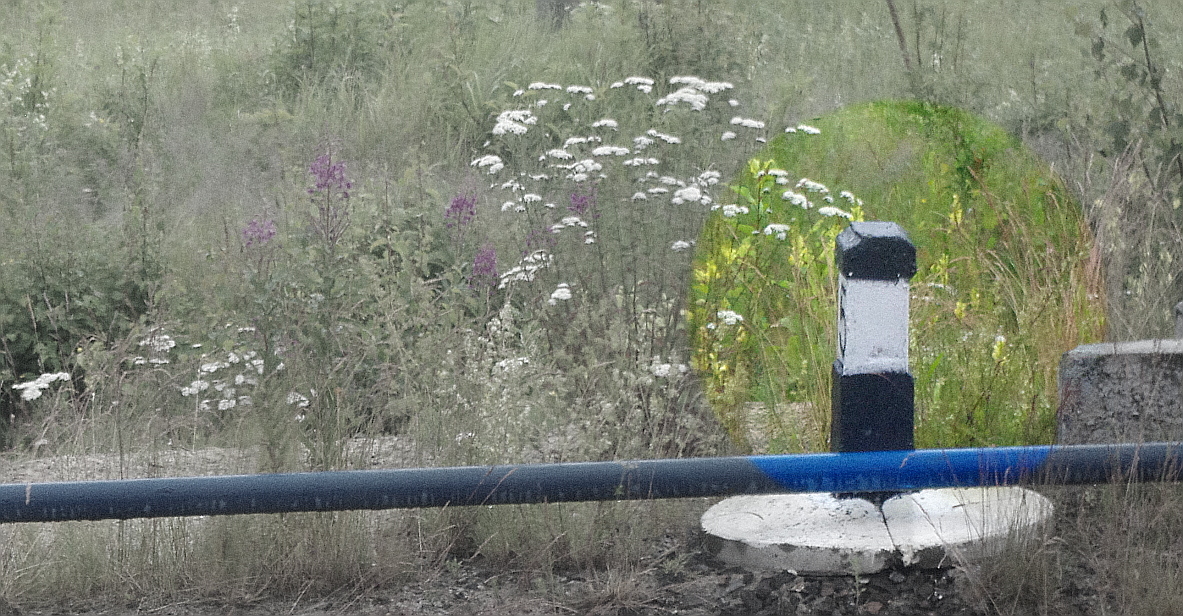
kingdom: Plantae
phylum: Tracheophyta
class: Magnoliopsida
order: Lamiales
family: Plantaginaceae
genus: Linaria
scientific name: Linaria vulgaris
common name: Butter and eggs
